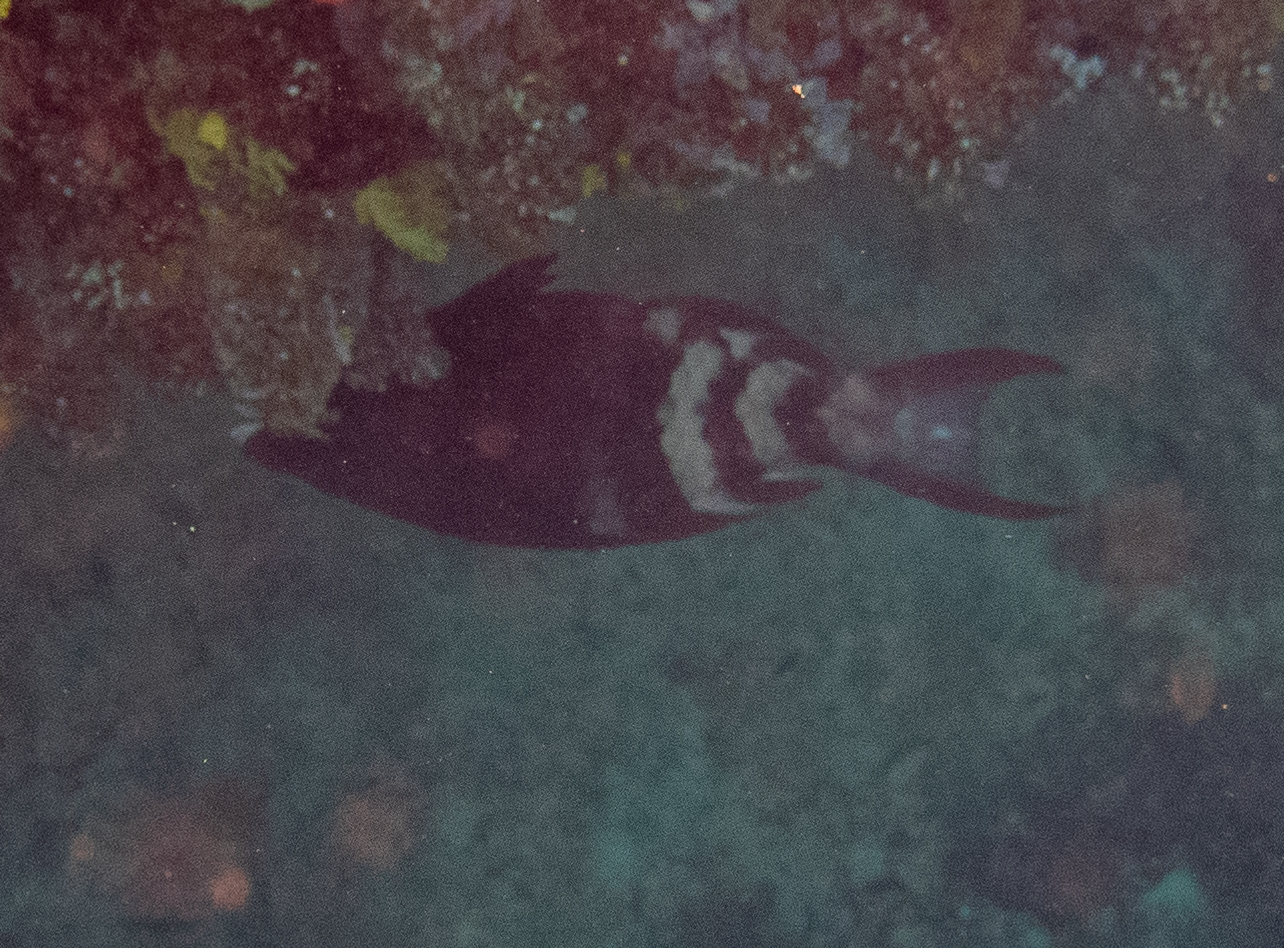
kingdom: Animalia
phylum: Chordata
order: Perciformes
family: Scaridae
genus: Scarus
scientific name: Scarus caudofasciatus
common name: Redbarred parrotfish
